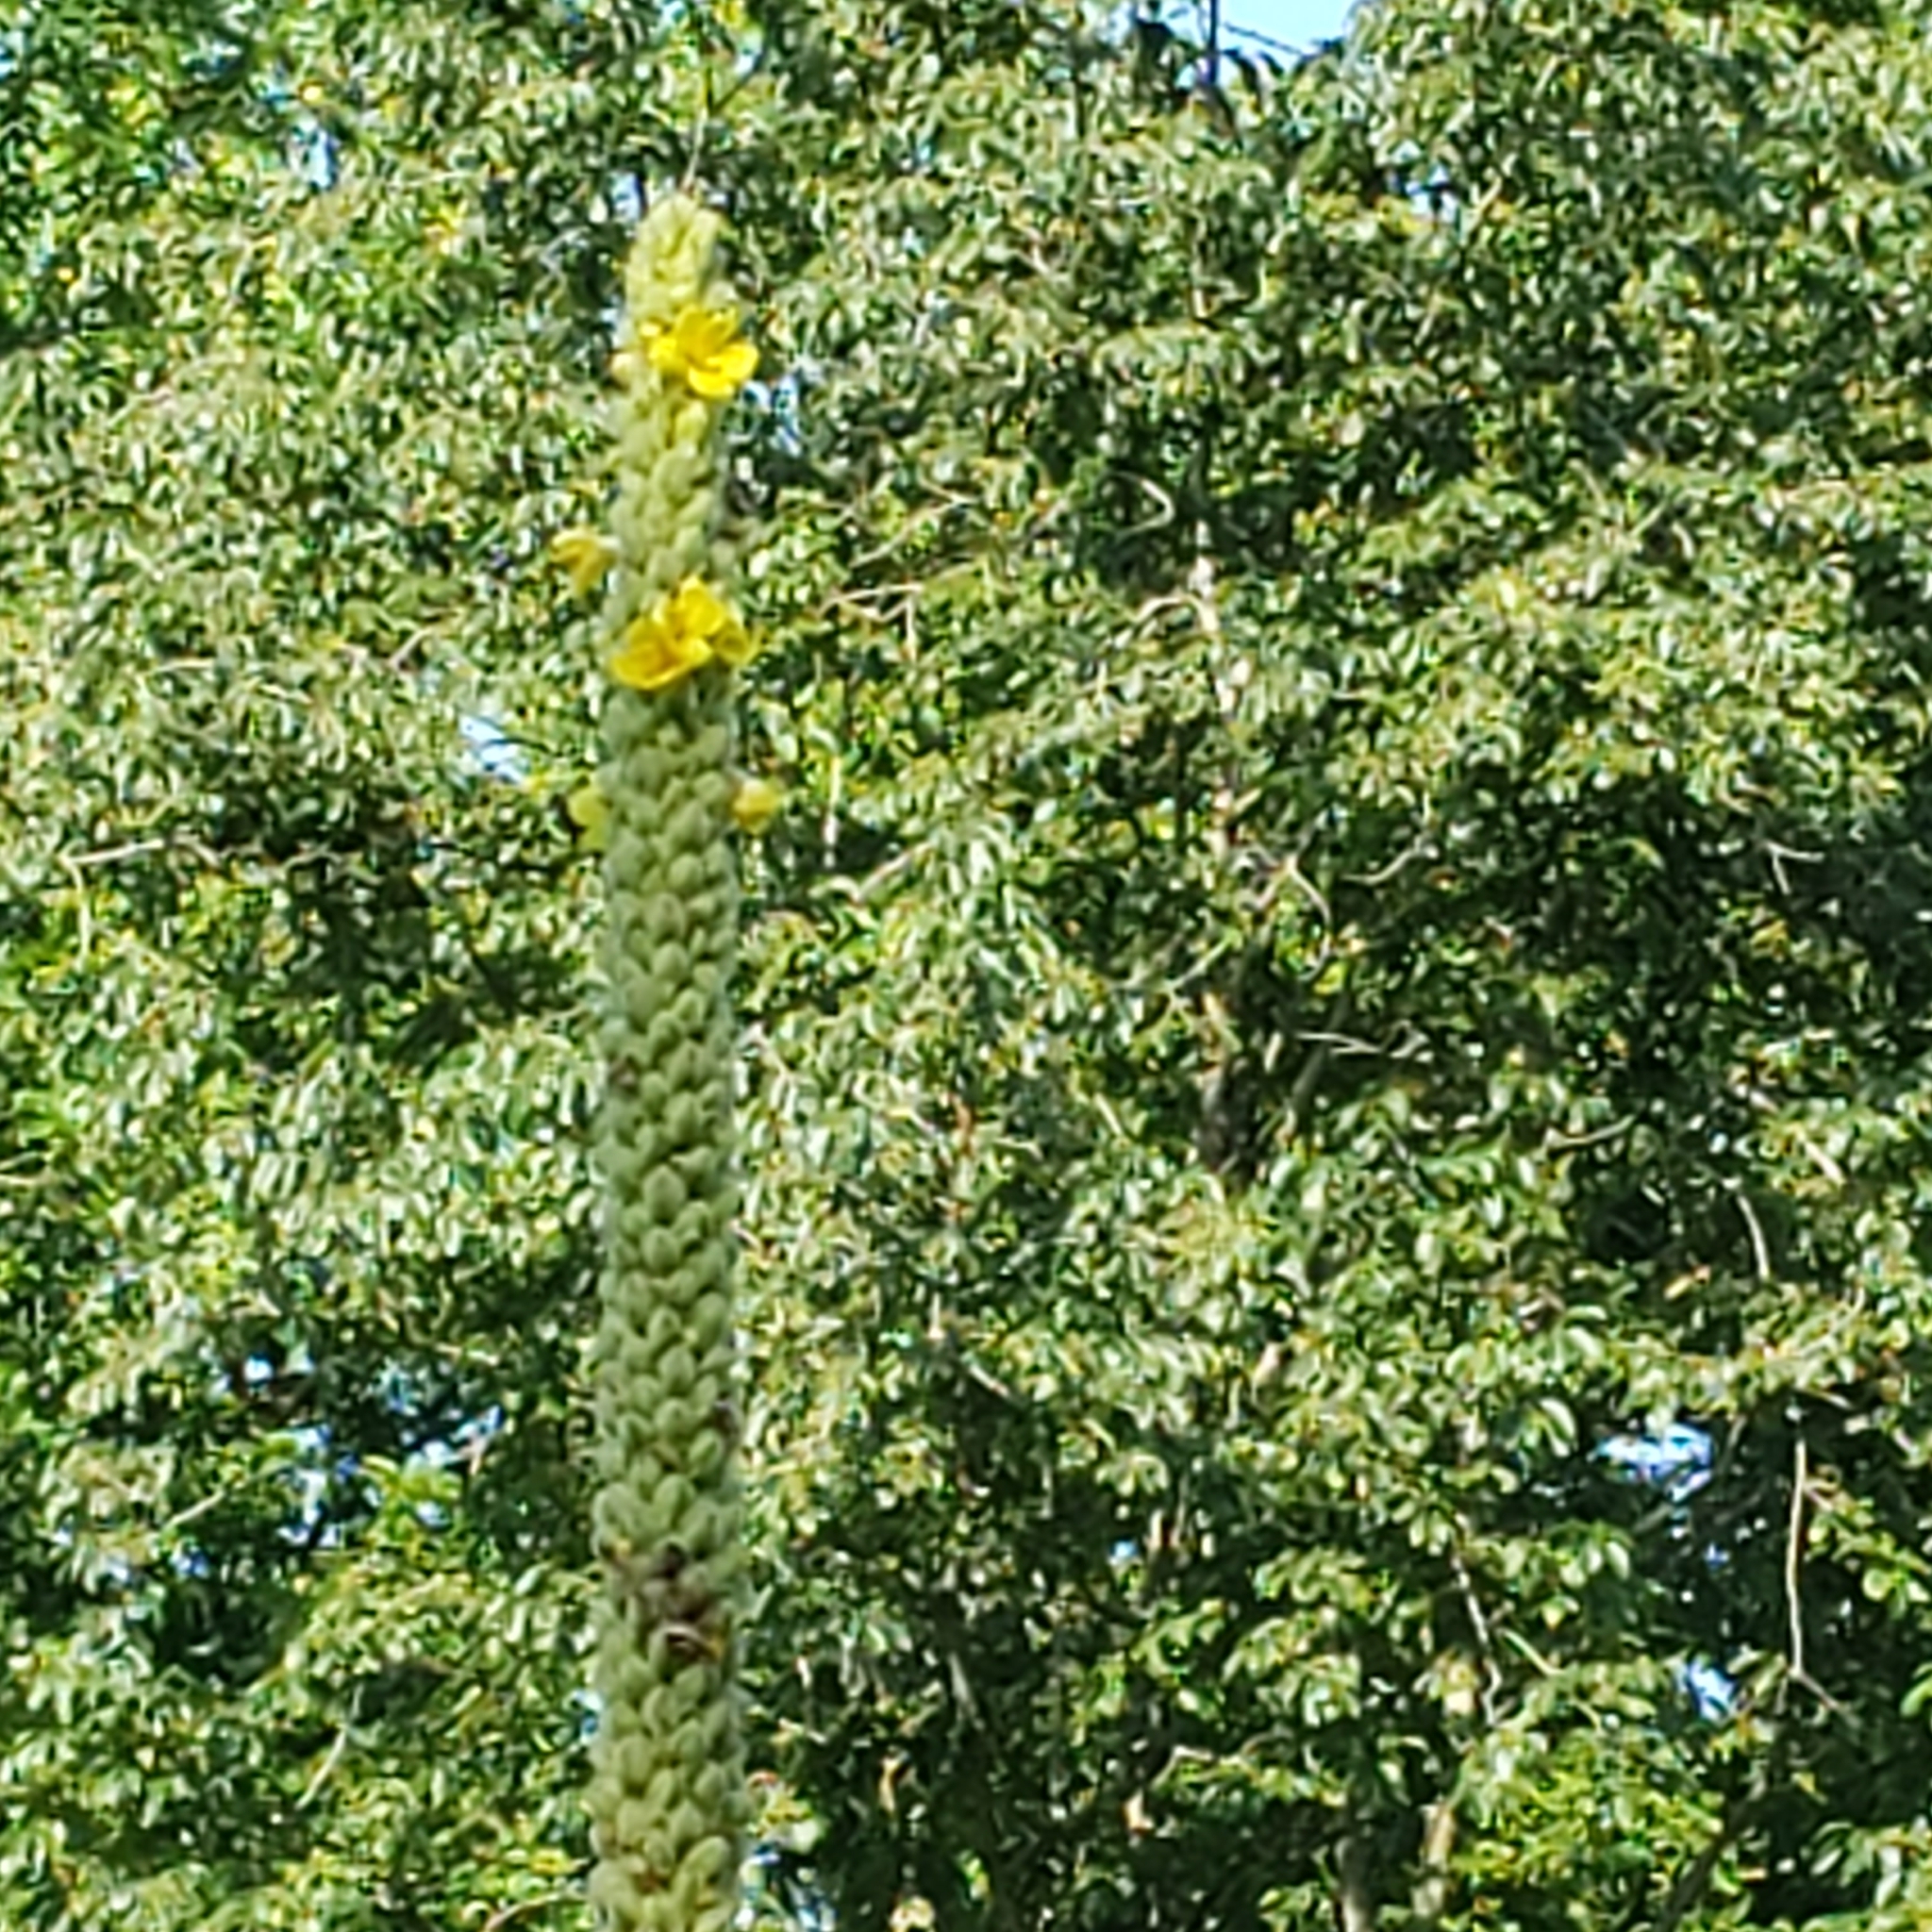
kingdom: Plantae
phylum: Tracheophyta
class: Magnoliopsida
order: Lamiales
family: Scrophulariaceae
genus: Verbascum
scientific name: Verbascum thapsus
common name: Common mullein
